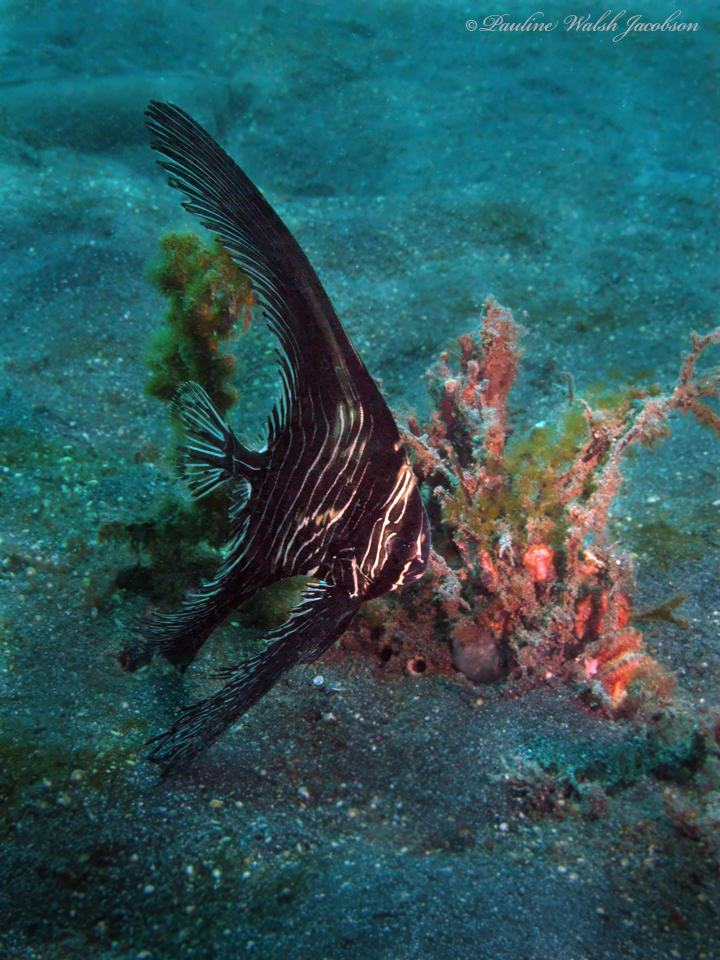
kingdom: Animalia
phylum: Chordata
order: Perciformes
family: Ephippidae
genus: Platax
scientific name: Platax batavianus
